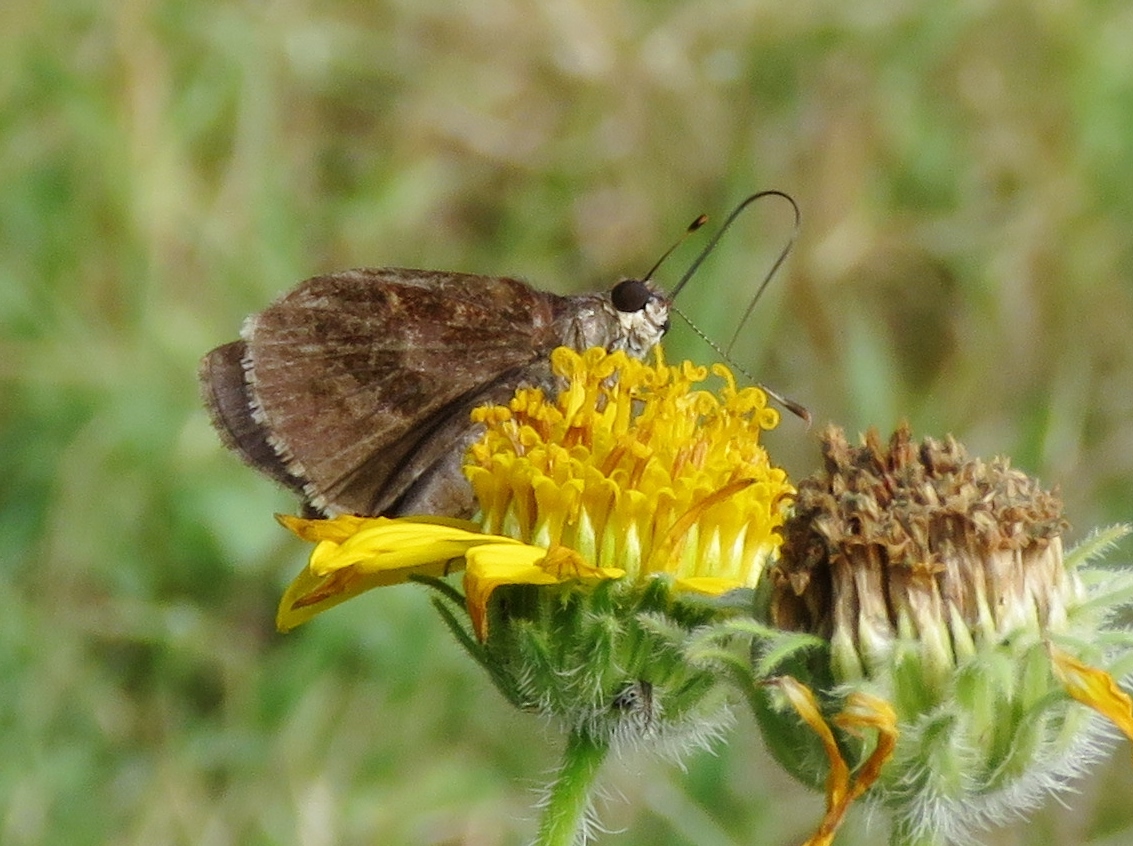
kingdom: Animalia
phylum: Arthropoda
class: Insecta
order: Lepidoptera
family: Hesperiidae
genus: Lerema
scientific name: Lerema accius
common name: Clouded skipper
